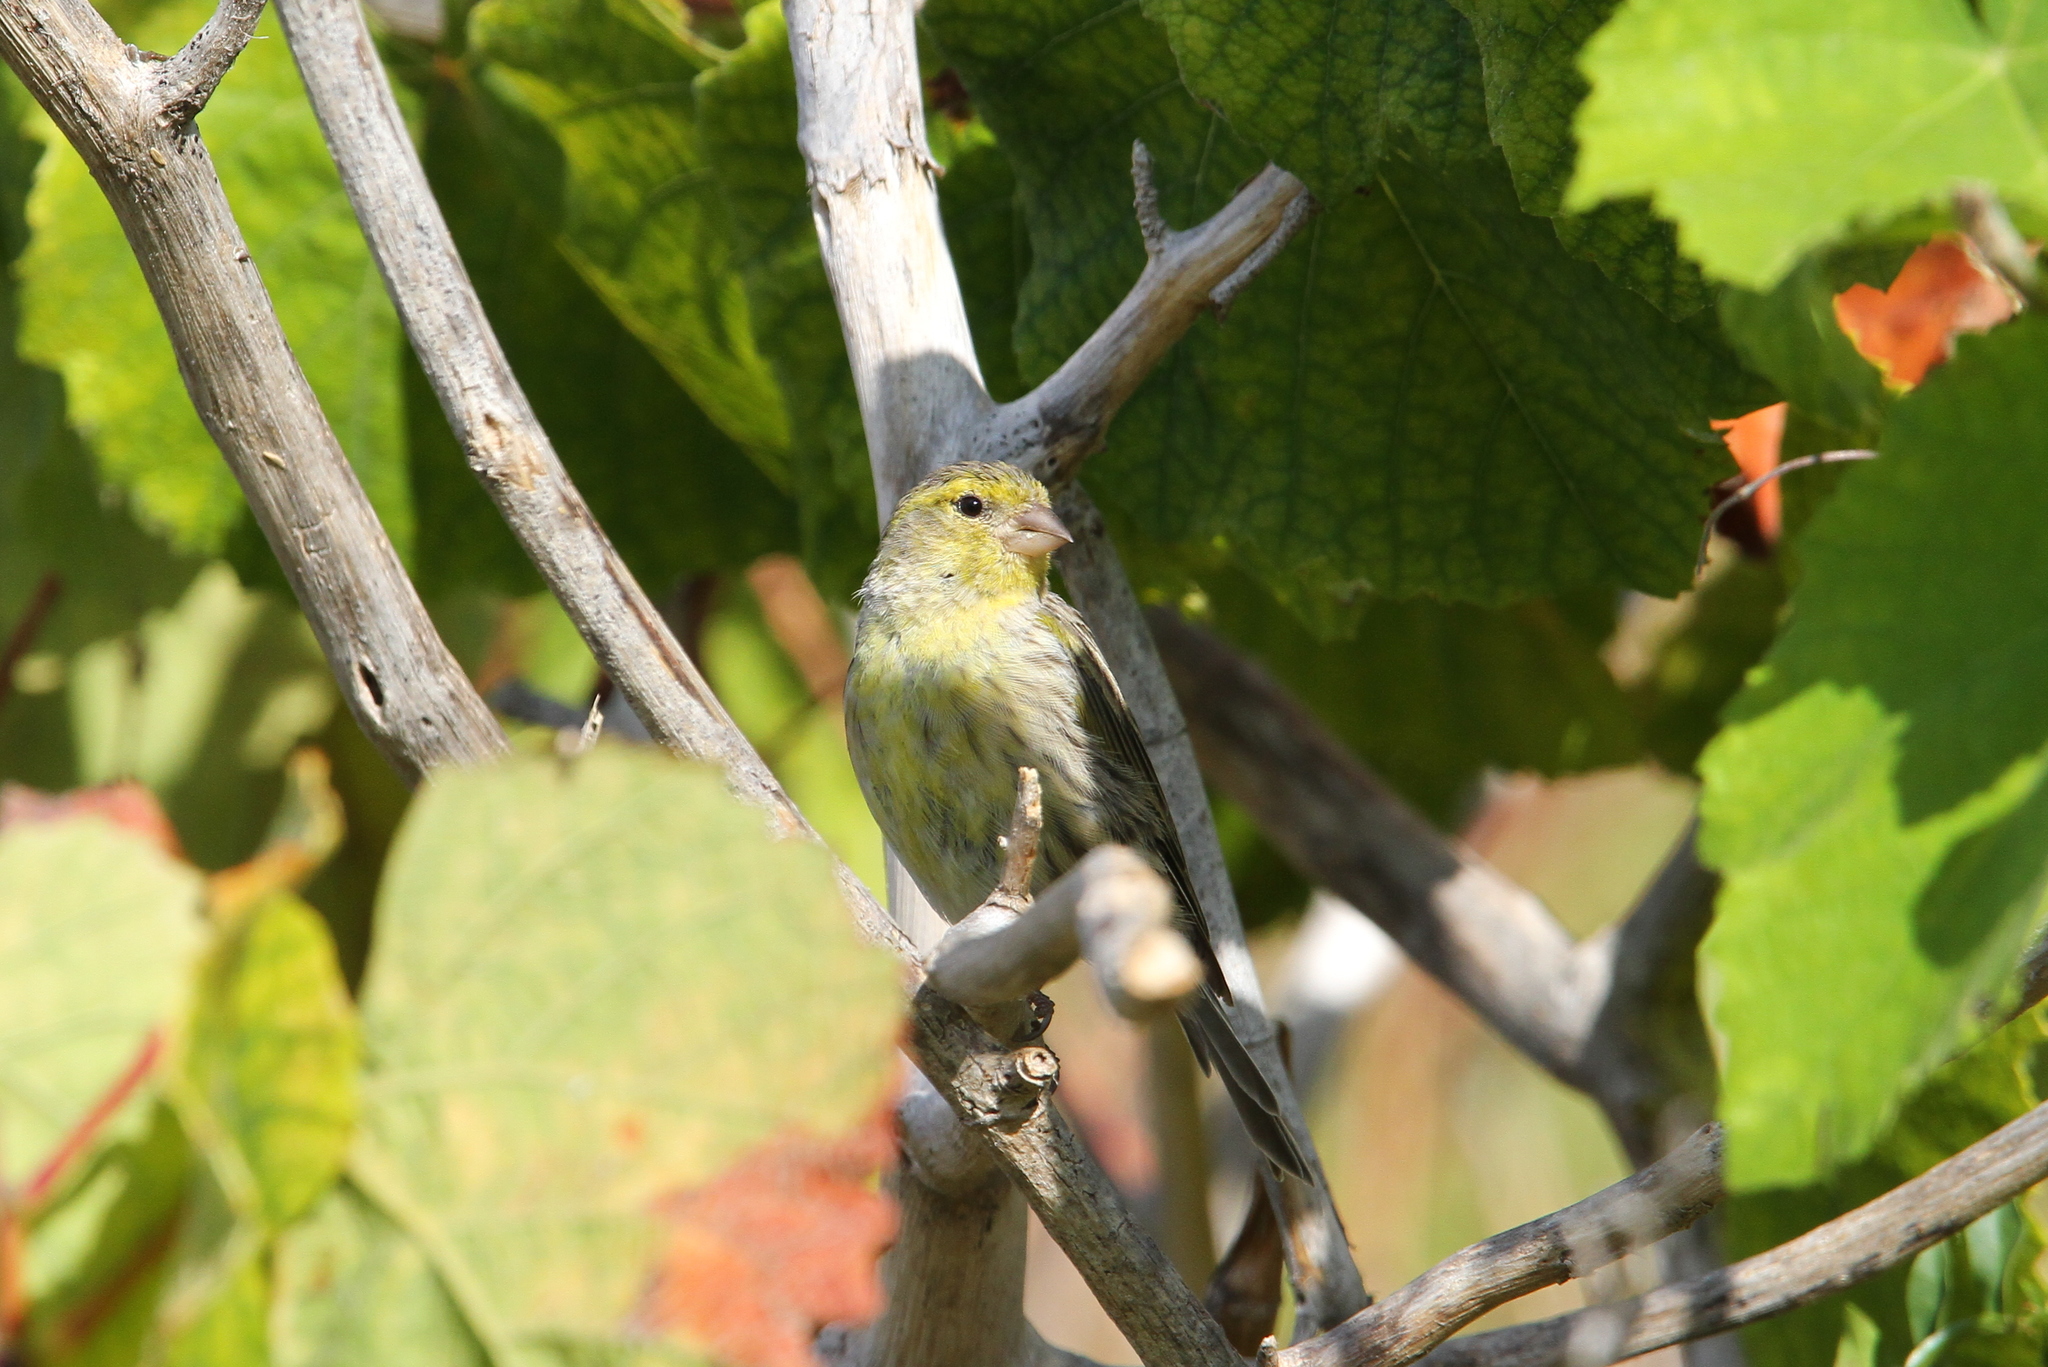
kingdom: Animalia
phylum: Chordata
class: Aves
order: Passeriformes
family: Fringillidae
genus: Serinus
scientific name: Serinus canaria
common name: Atlantic canary
